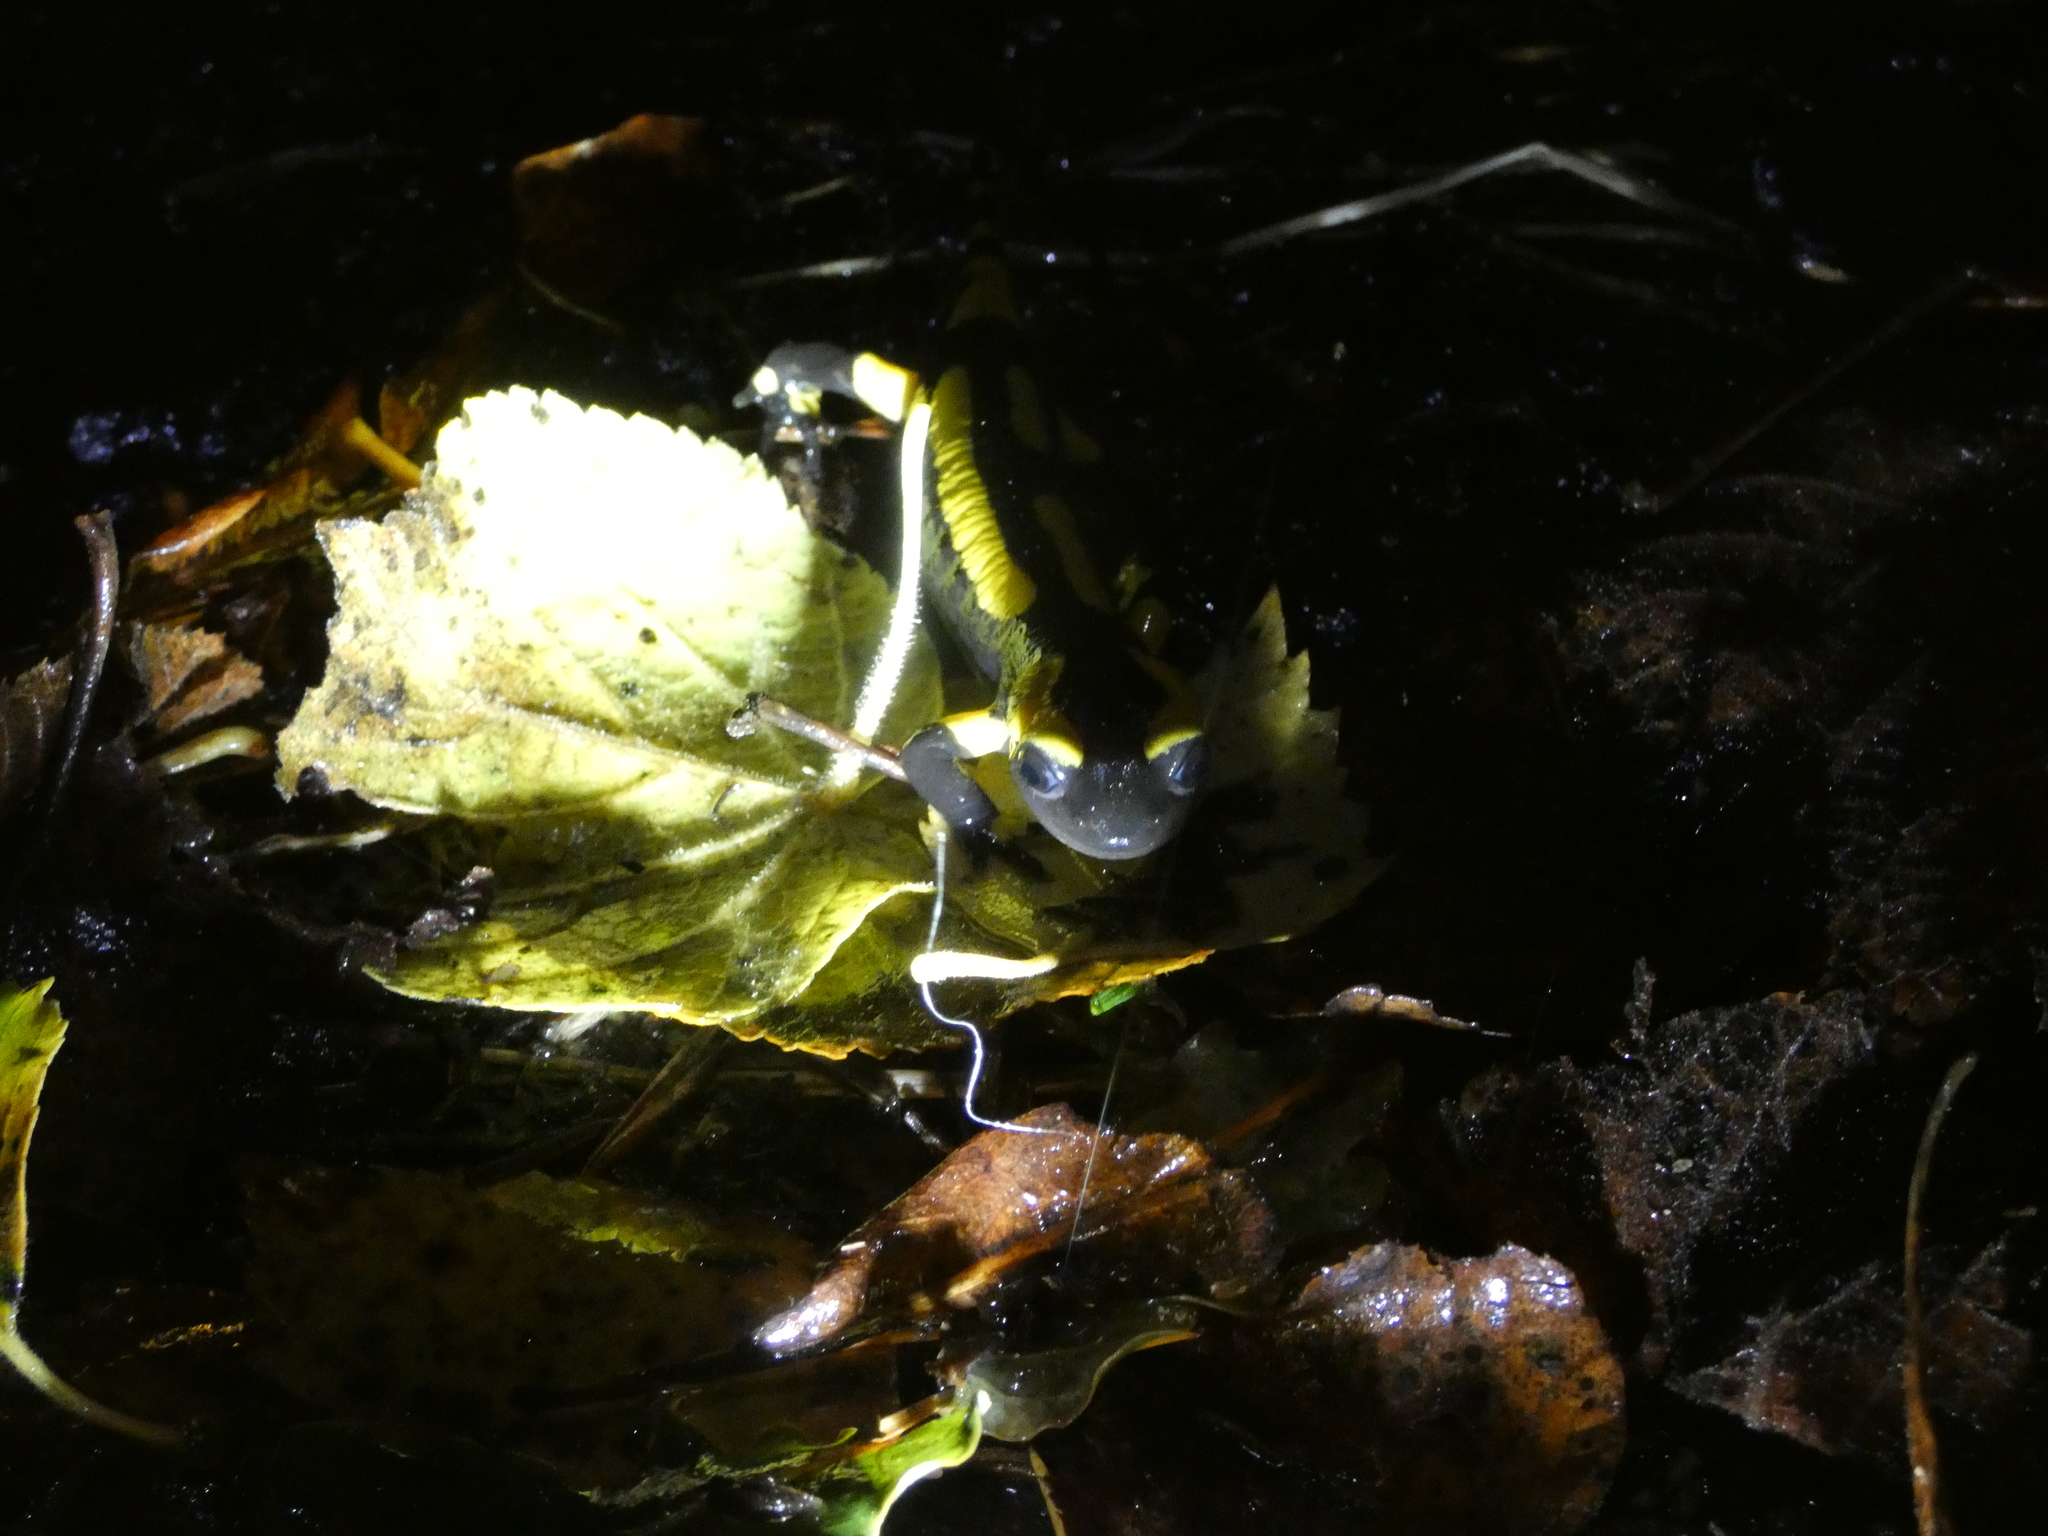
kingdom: Animalia
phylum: Chordata
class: Amphibia
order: Caudata
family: Salamandridae
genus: Salamandra
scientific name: Salamandra salamandra
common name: Fire salamander
